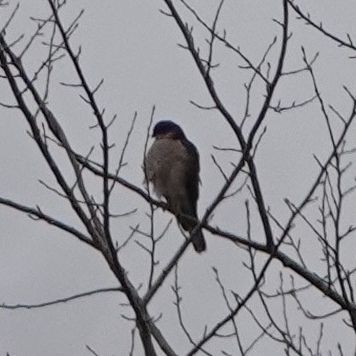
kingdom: Animalia
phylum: Chordata
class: Aves
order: Accipitriformes
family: Accipitridae
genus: Accipiter
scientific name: Accipiter nisus
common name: Eurasian sparrowhawk
